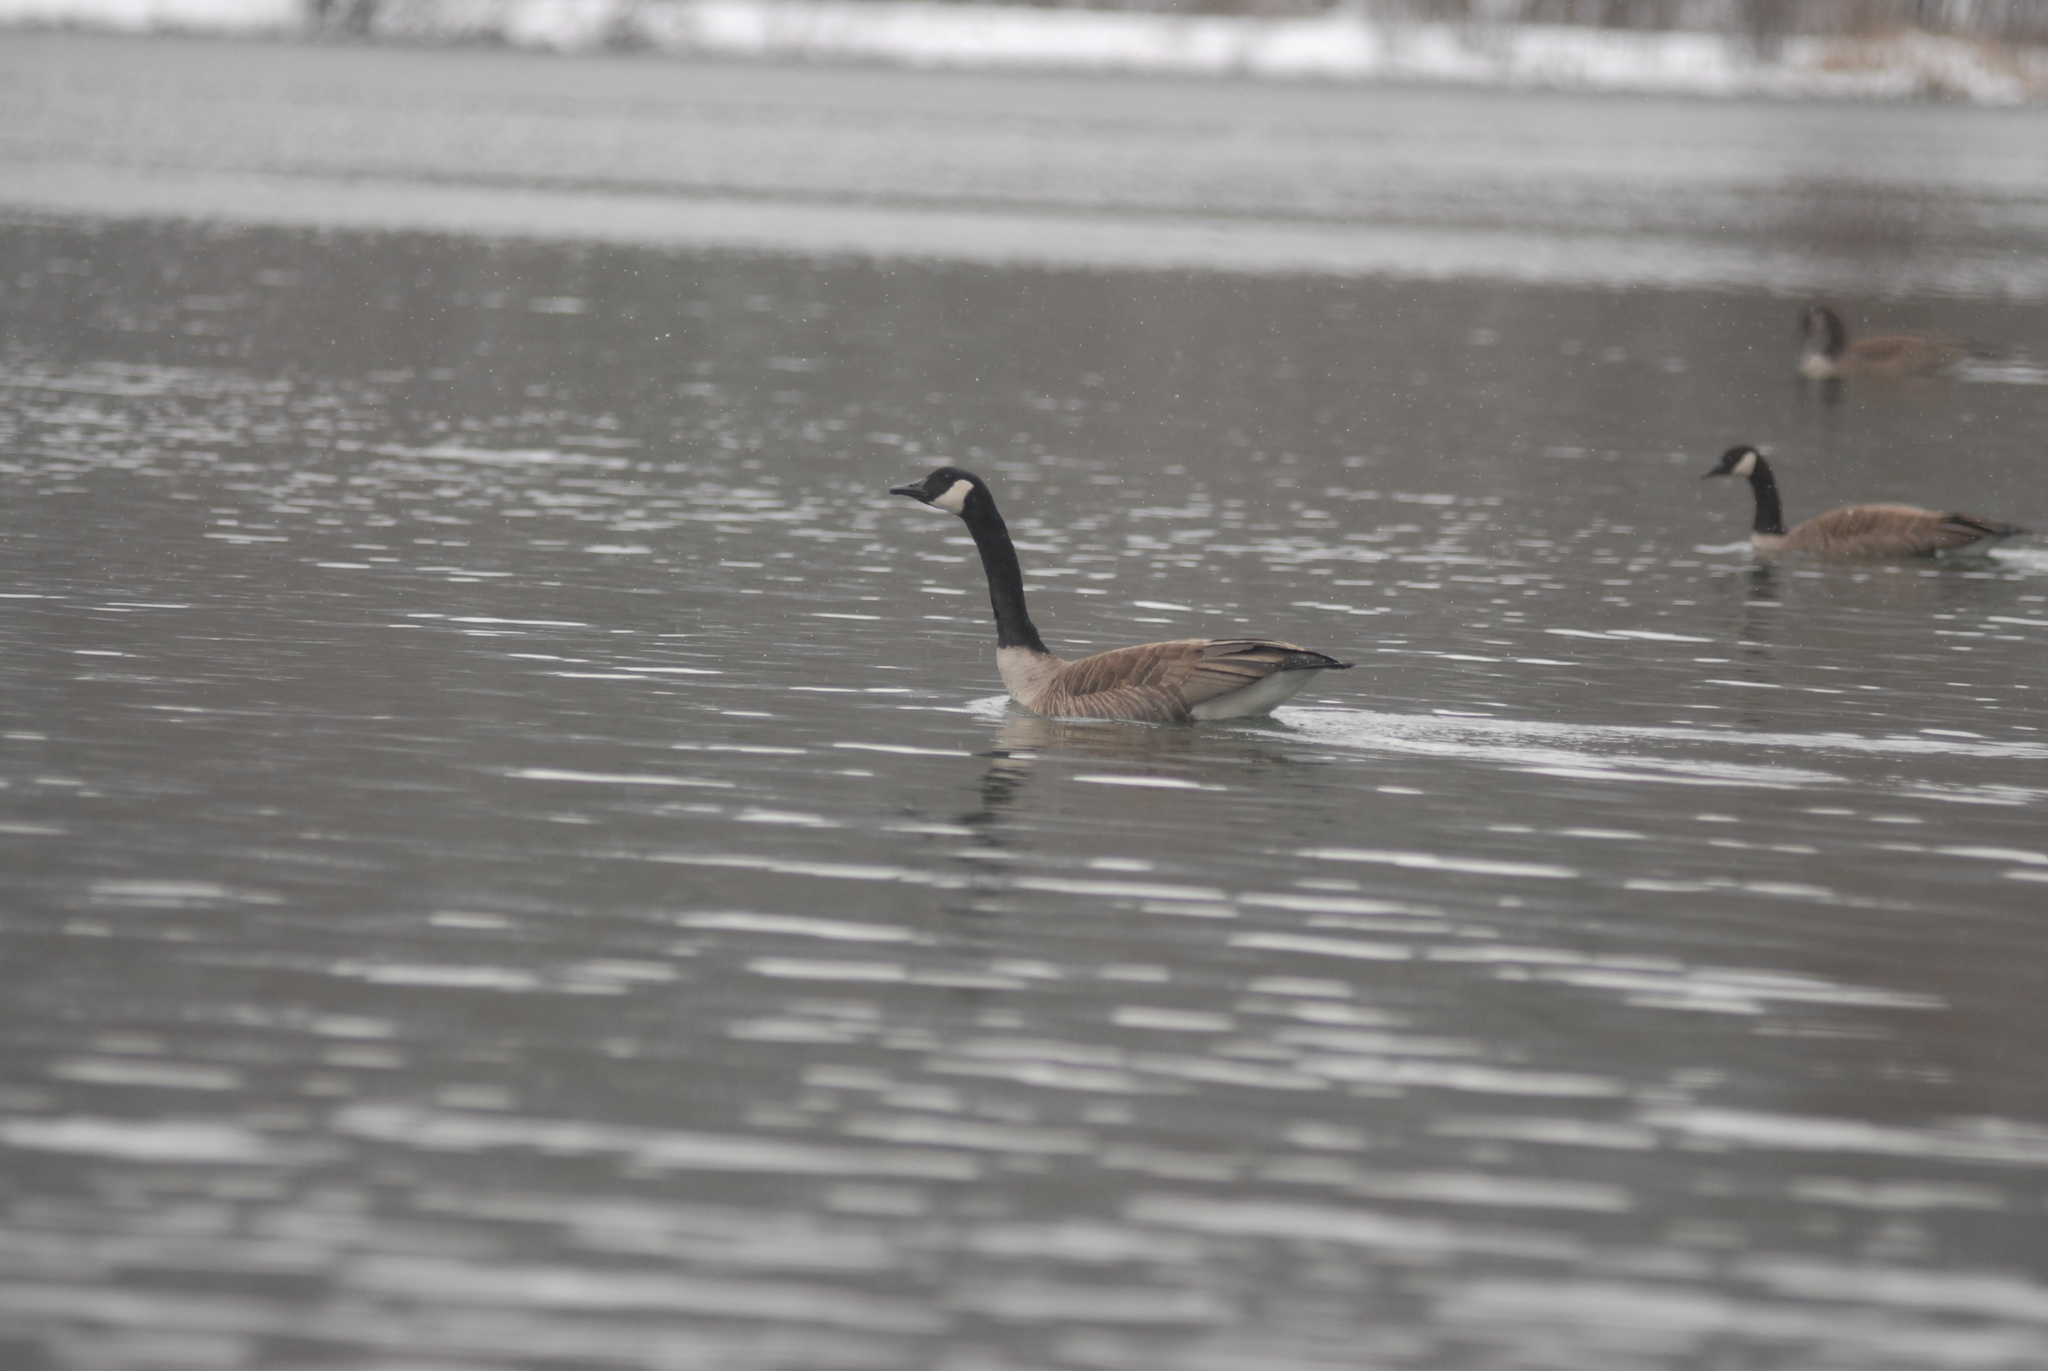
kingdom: Animalia
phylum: Chordata
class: Aves
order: Anseriformes
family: Anatidae
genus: Branta
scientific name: Branta canadensis
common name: Canada goose
